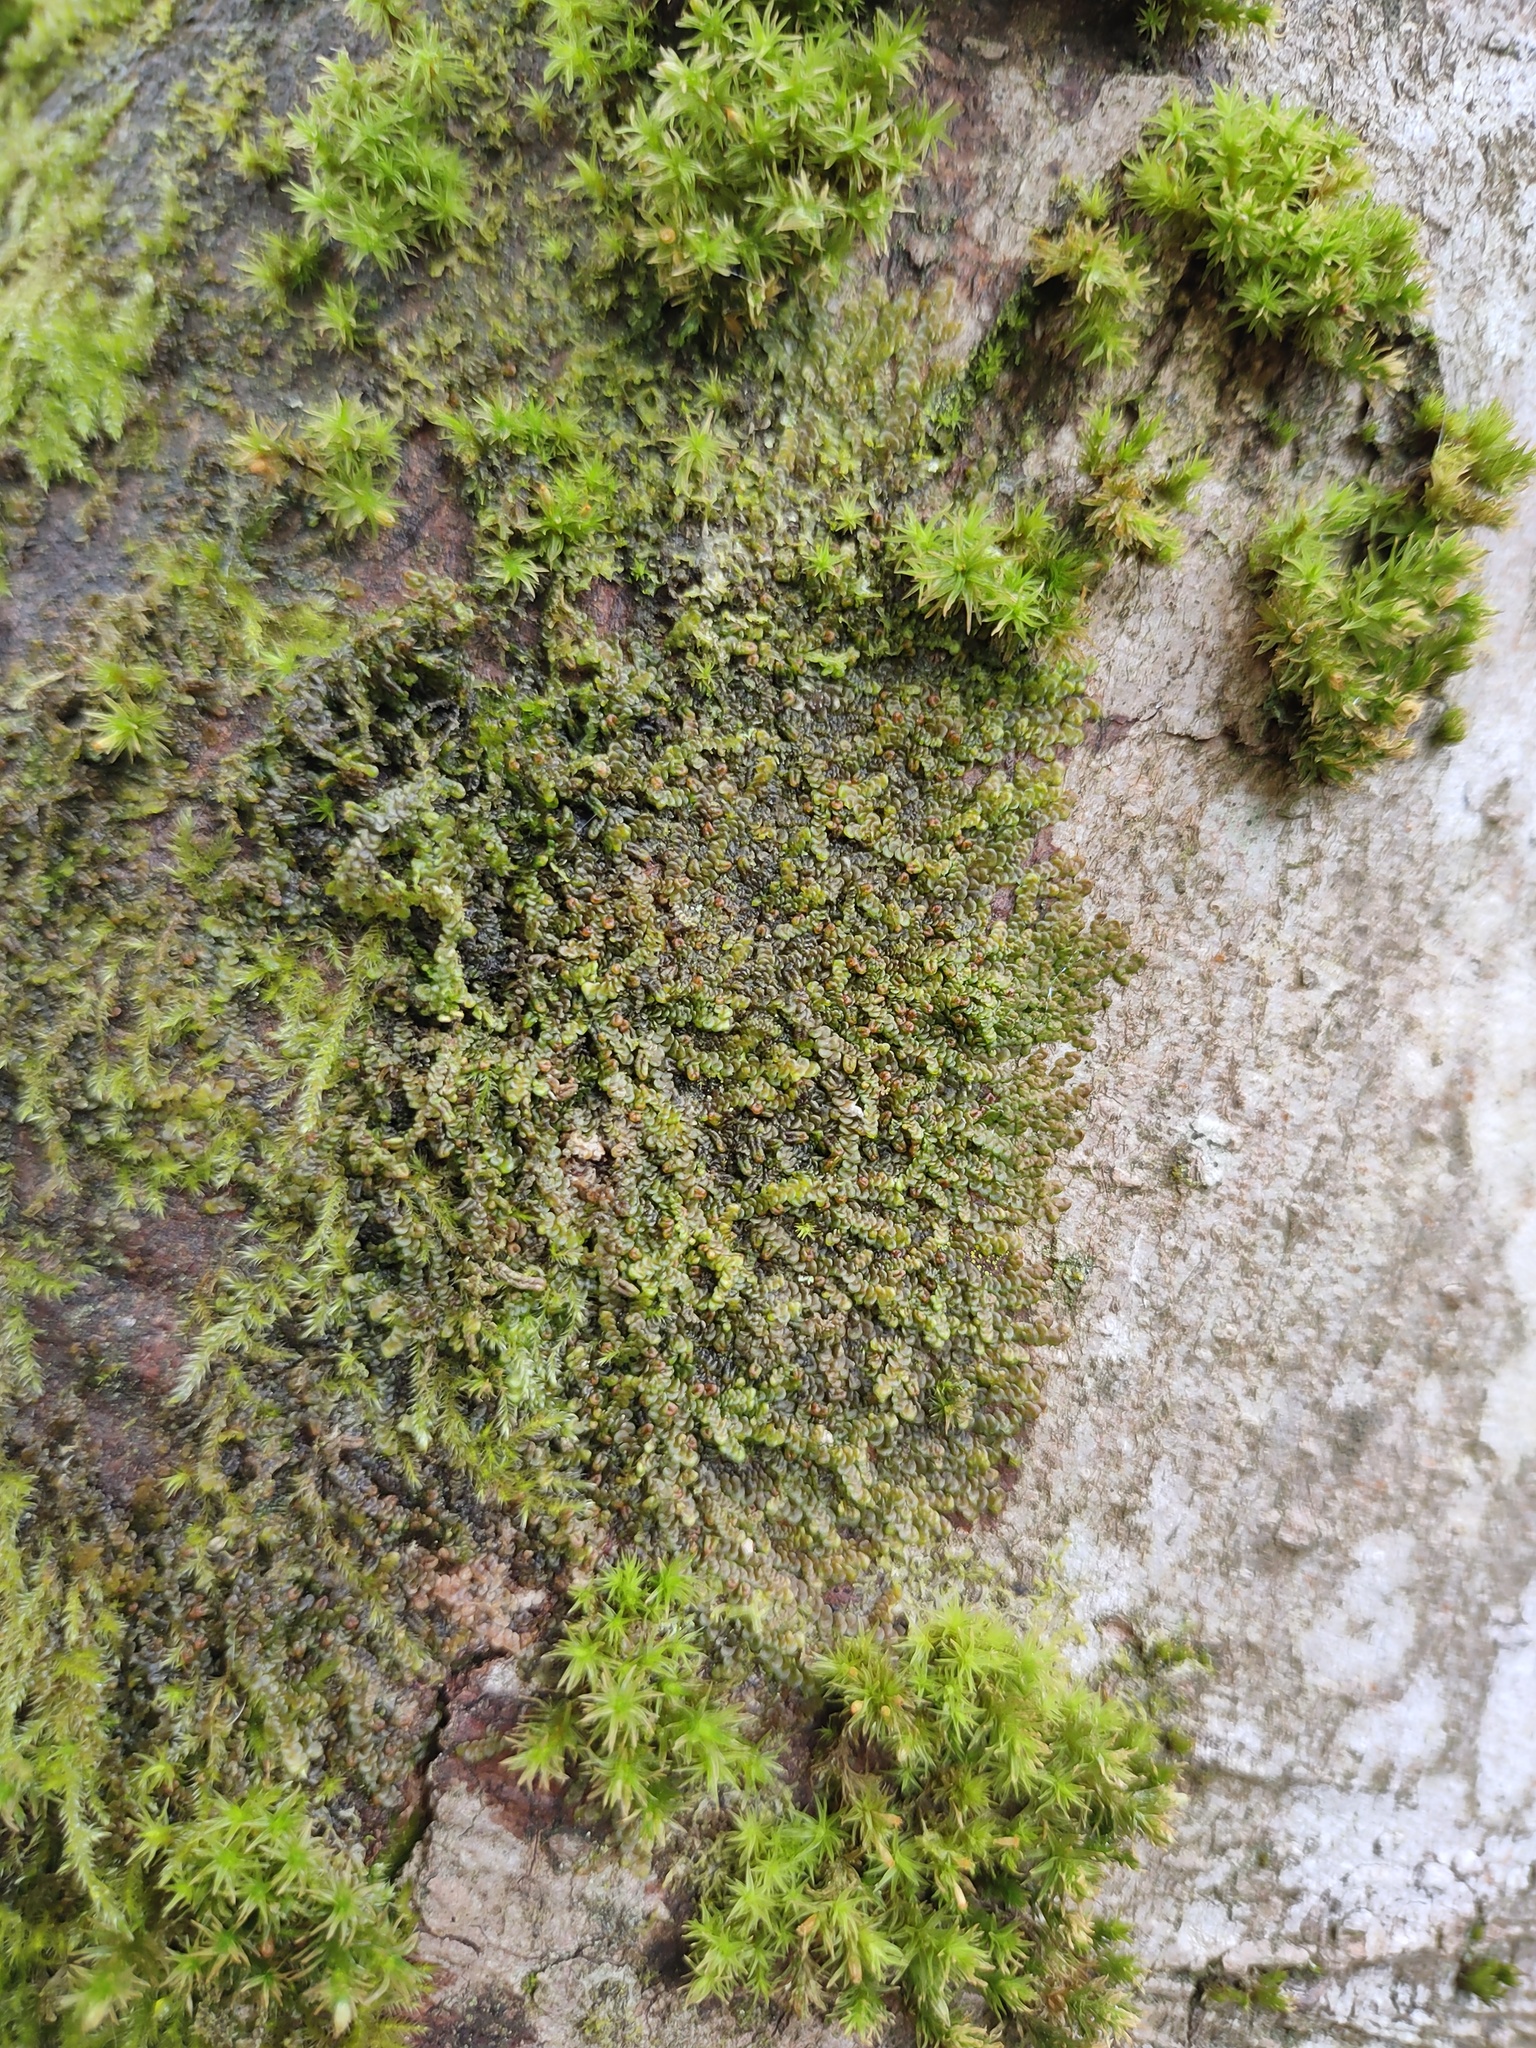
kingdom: Plantae
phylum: Marchantiophyta
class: Jungermanniopsida
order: Porellales
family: Frullaniaceae
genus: Frullania
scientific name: Frullania dilatata
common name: Dilated scalewort
